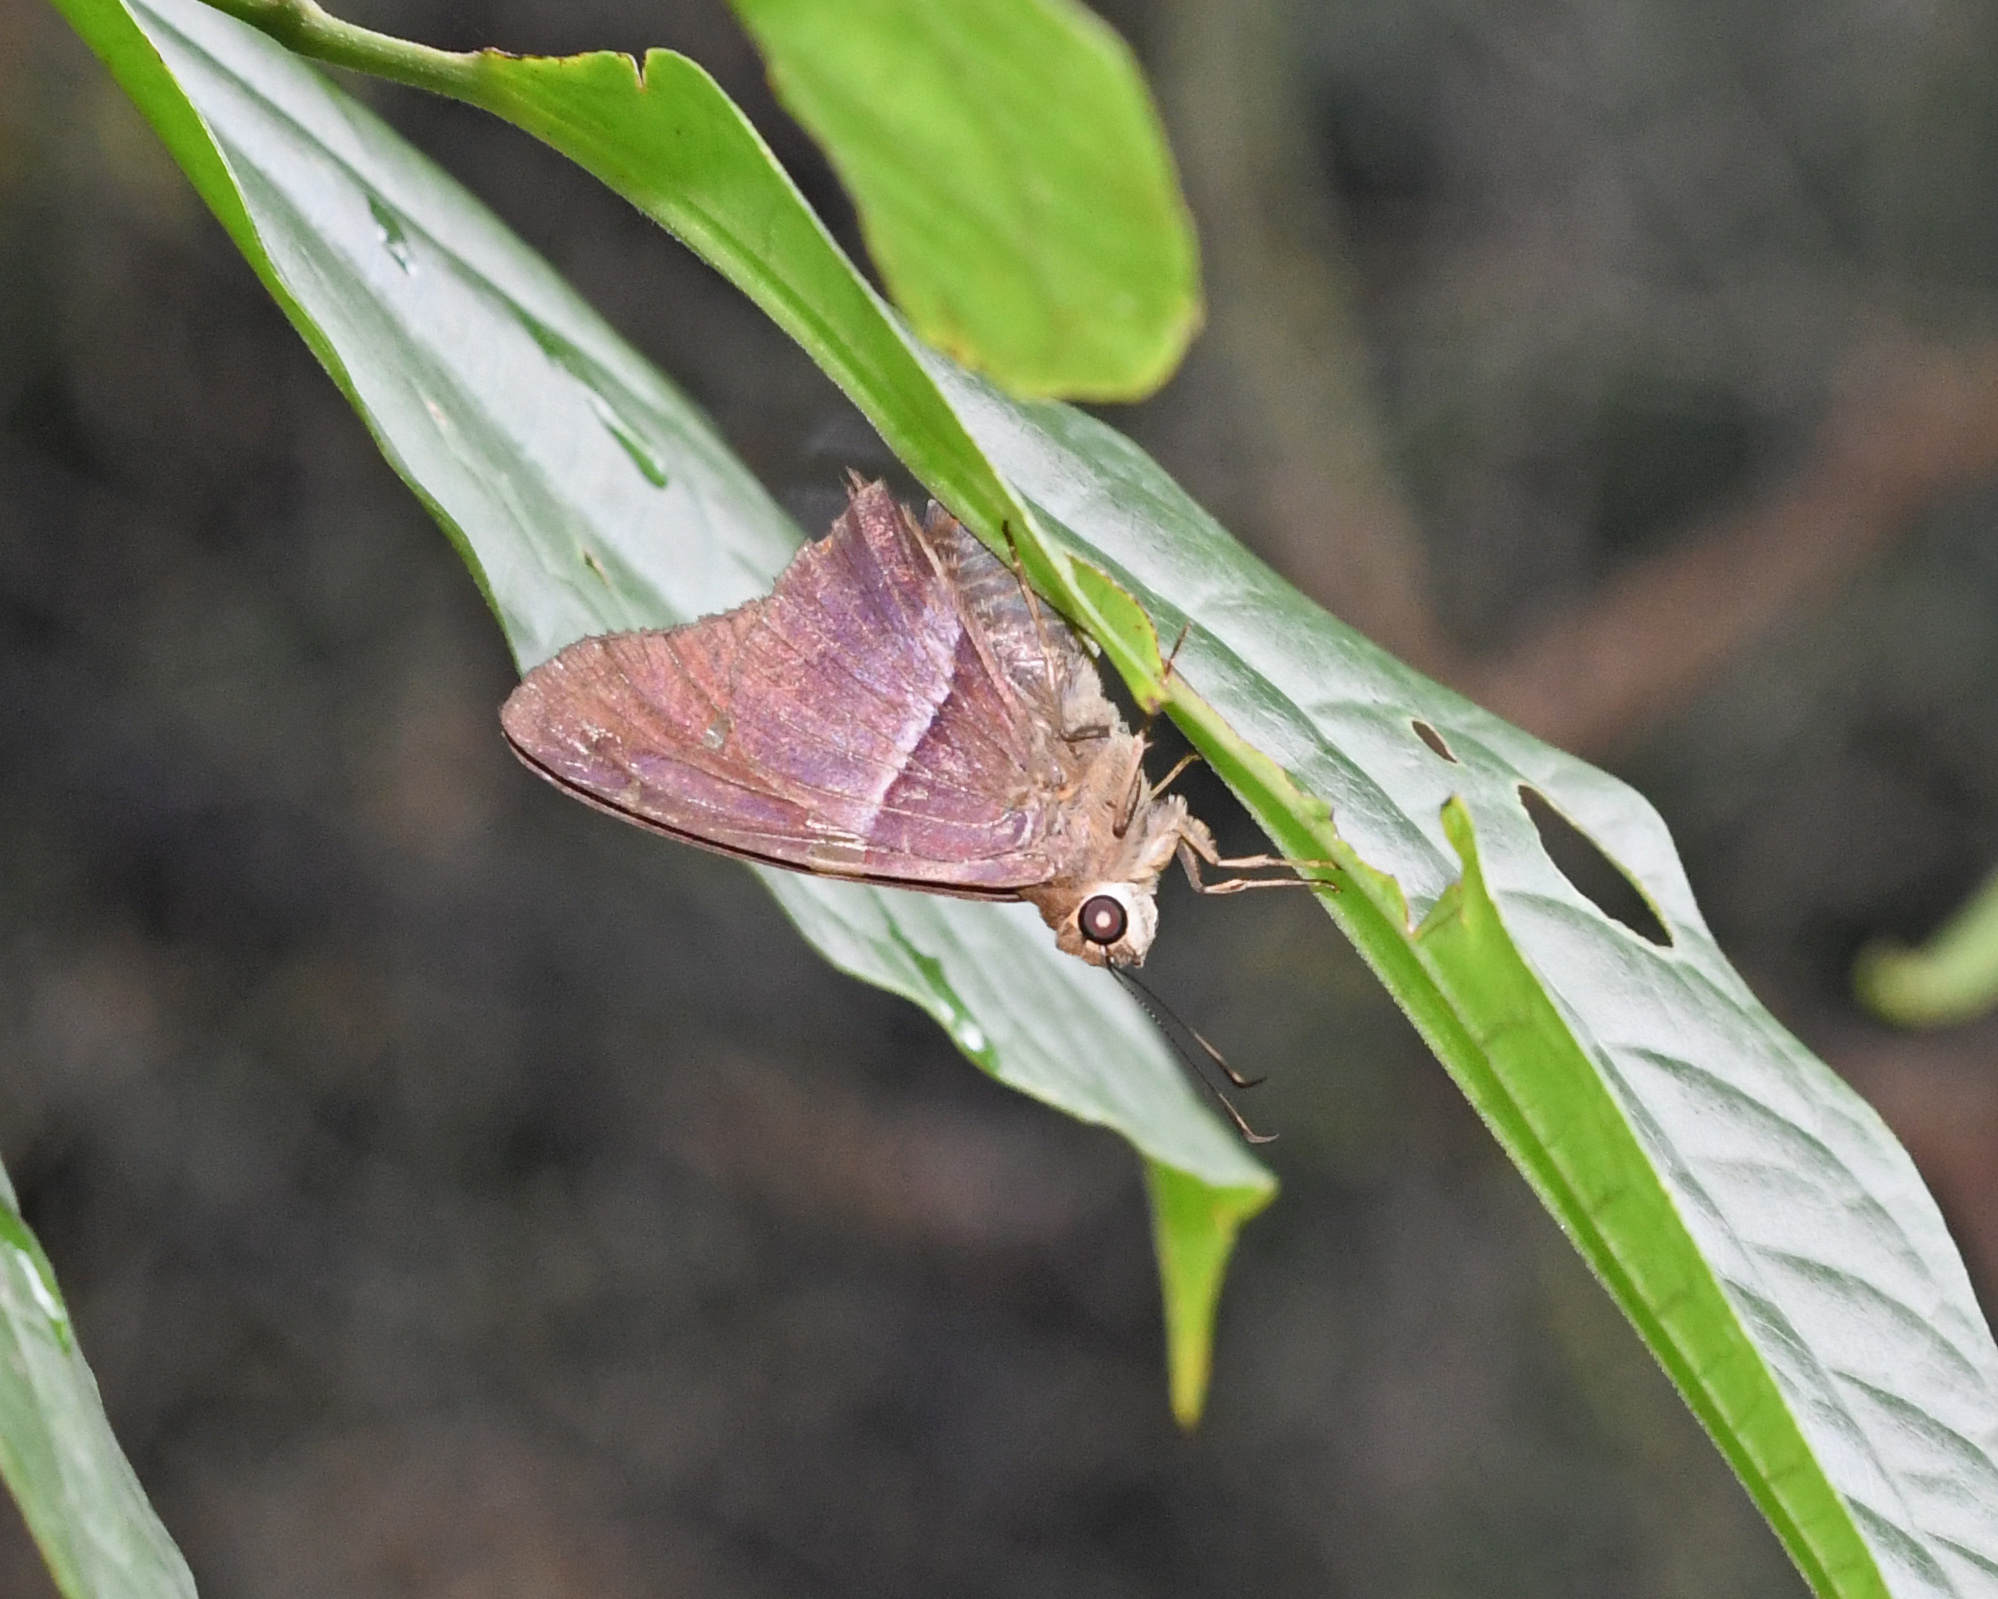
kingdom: Animalia
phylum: Arthropoda
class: Insecta
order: Lepidoptera
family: Hesperiidae
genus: Aguna
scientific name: Aguna asander
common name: Gold-spotted aguna
